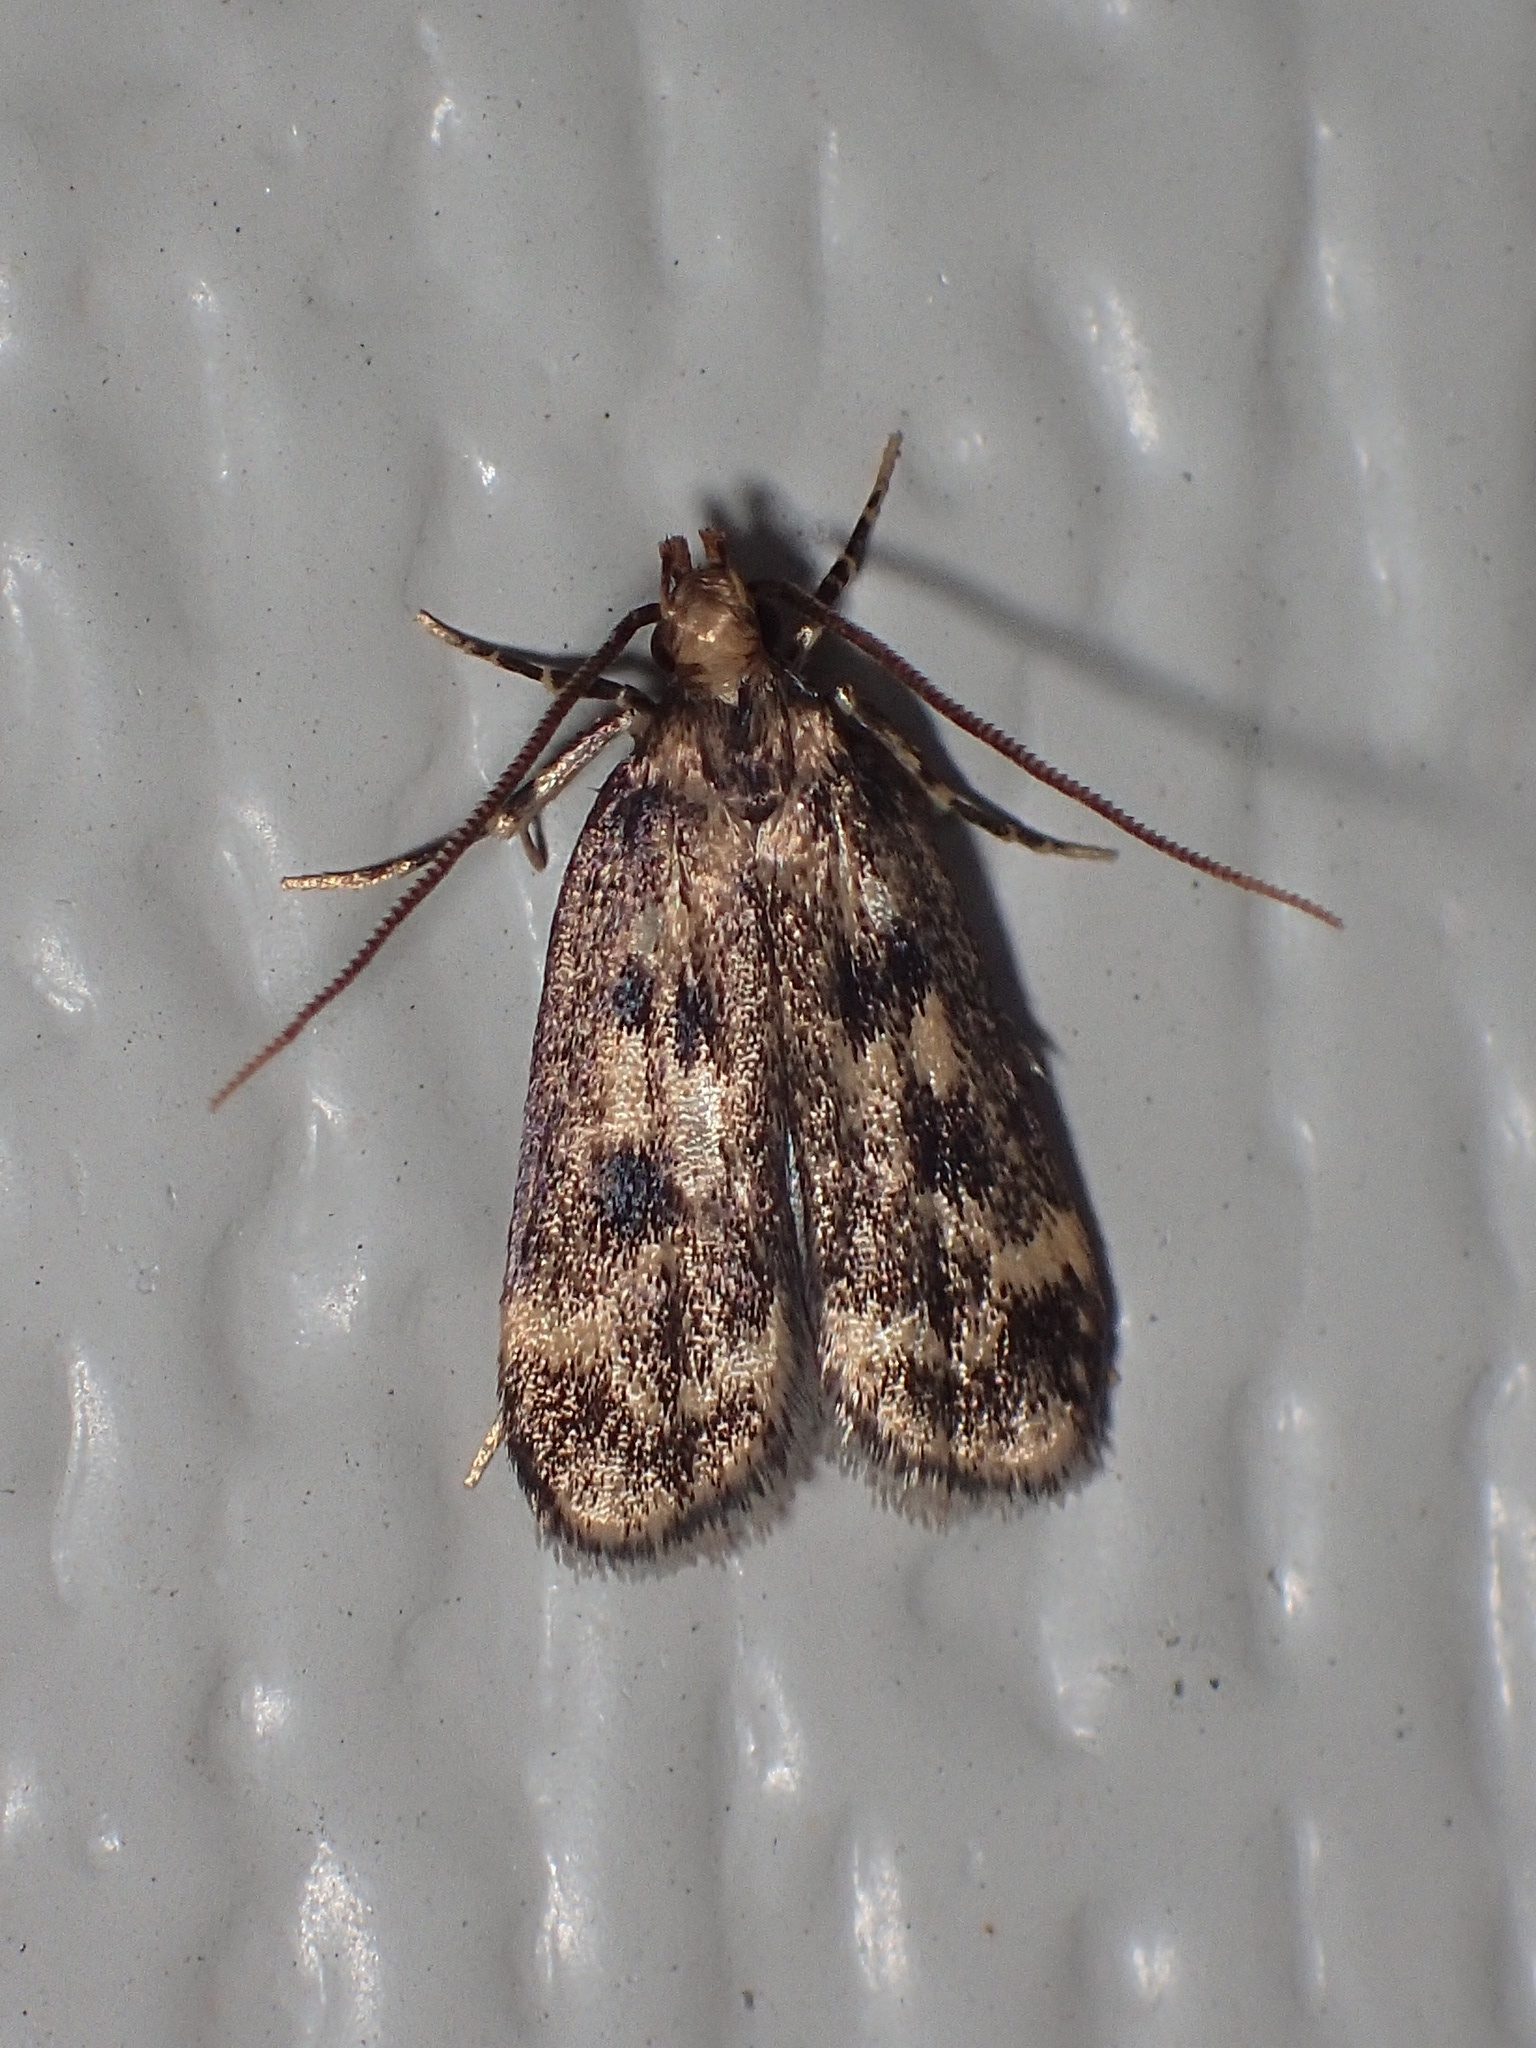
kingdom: Animalia
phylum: Arthropoda
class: Insecta
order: Lepidoptera
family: Lecithoceridae
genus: Martyringa
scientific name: Martyringa latipennis
